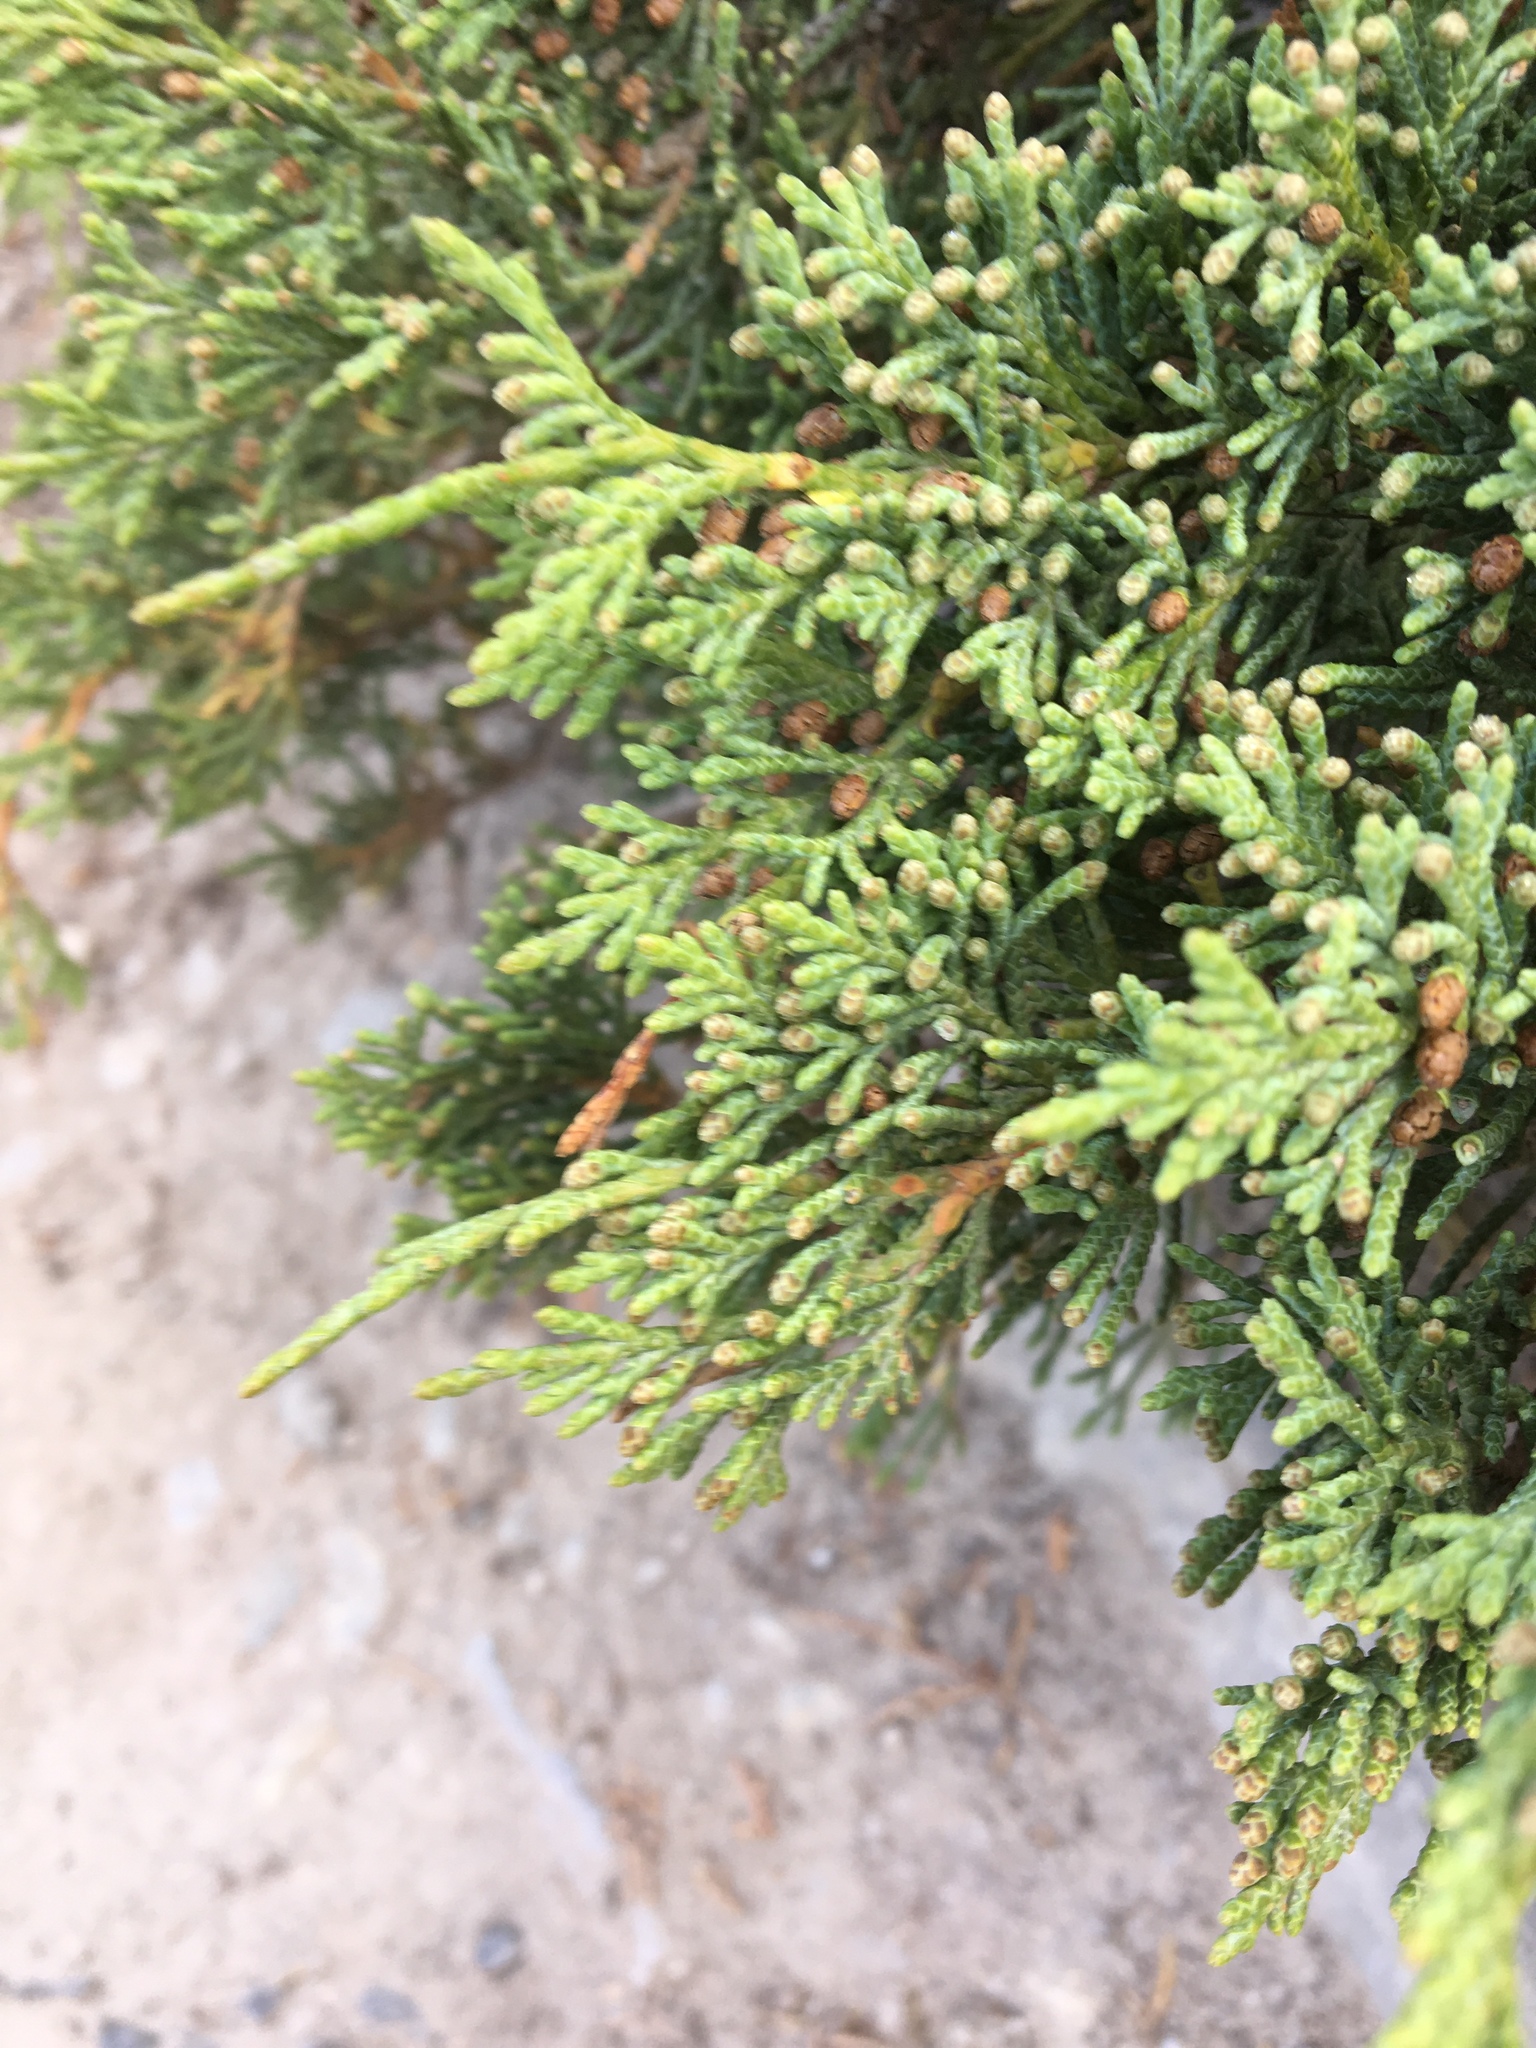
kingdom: Plantae
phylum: Tracheophyta
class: Pinopsida
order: Pinales
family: Cupressaceae
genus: Juniperus
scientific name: Juniperus horizontalis
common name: Creeping juniper
